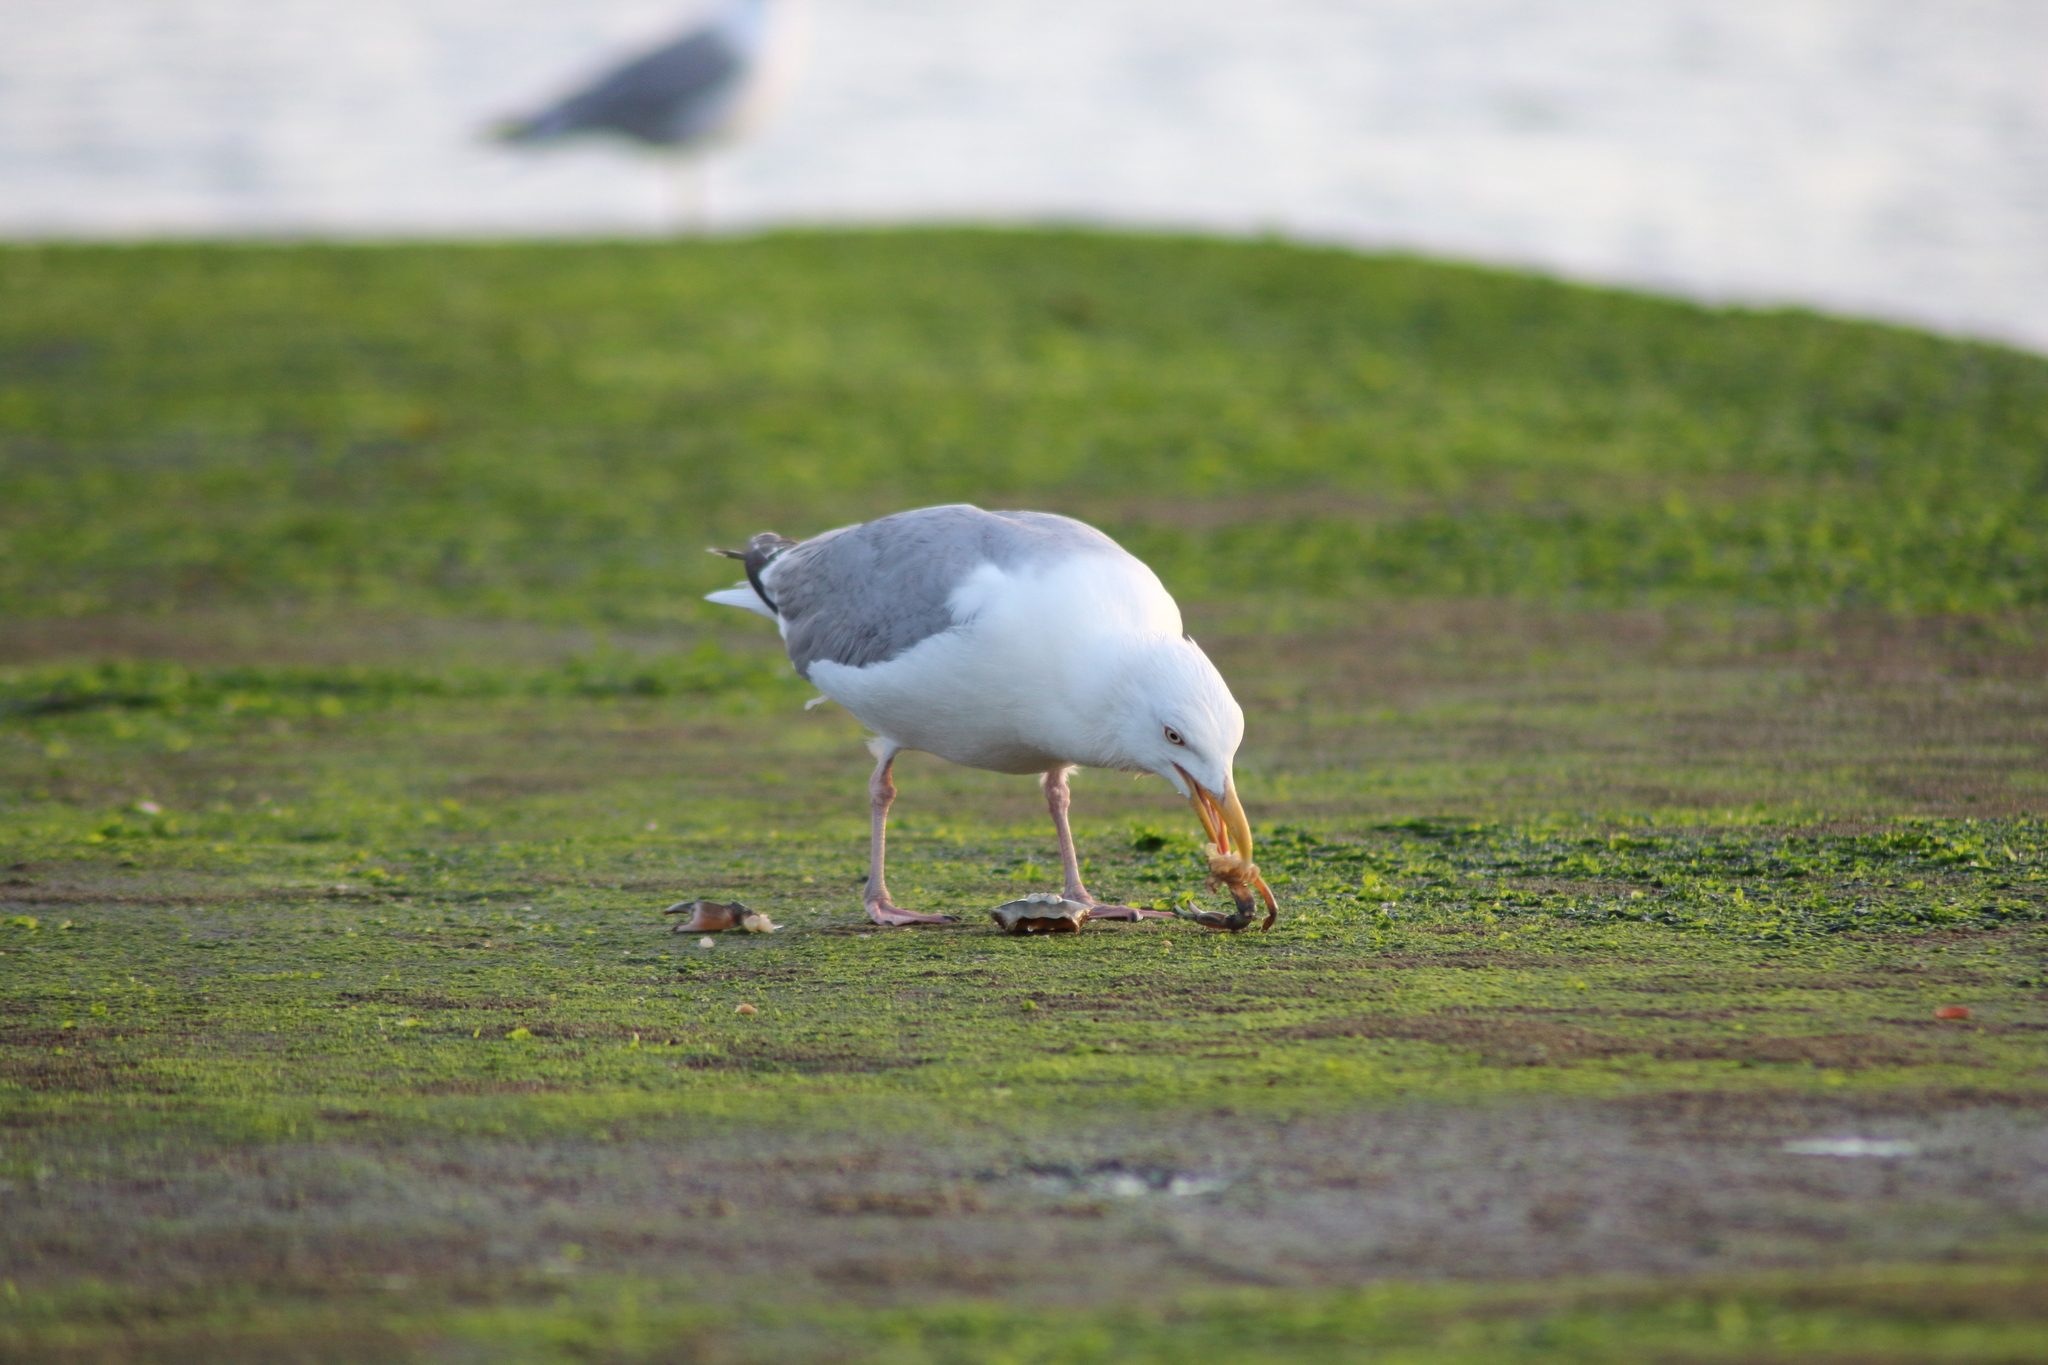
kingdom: Animalia
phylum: Chordata
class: Aves
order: Charadriiformes
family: Laridae
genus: Larus
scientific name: Larus argentatus
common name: Herring gull
